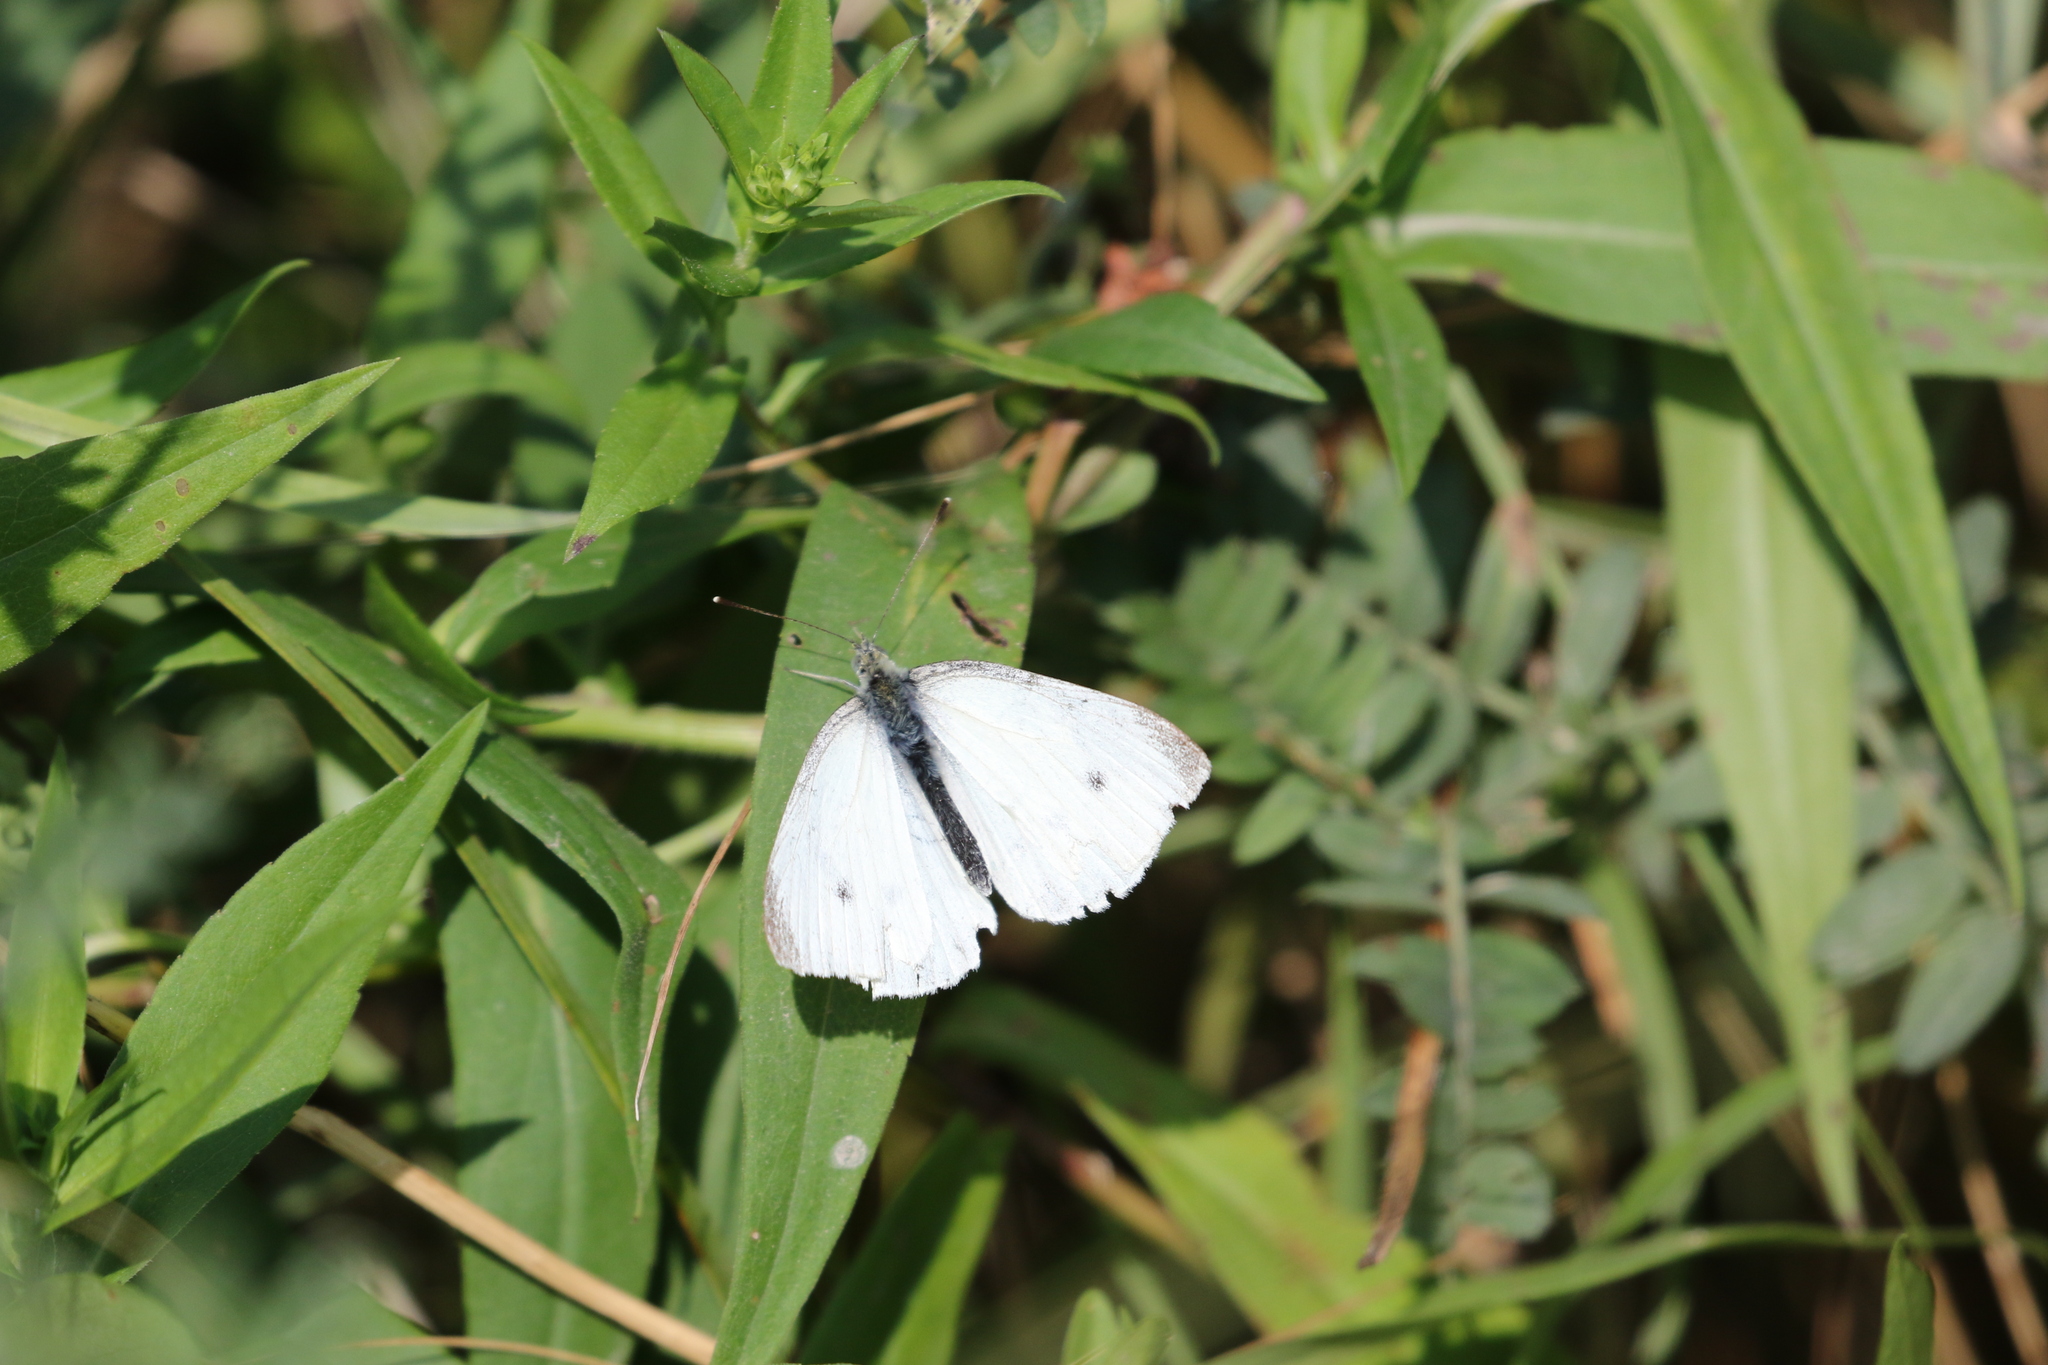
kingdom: Animalia
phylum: Arthropoda
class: Insecta
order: Lepidoptera
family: Pieridae
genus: Pieris
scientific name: Pieris rapae
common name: Small white
